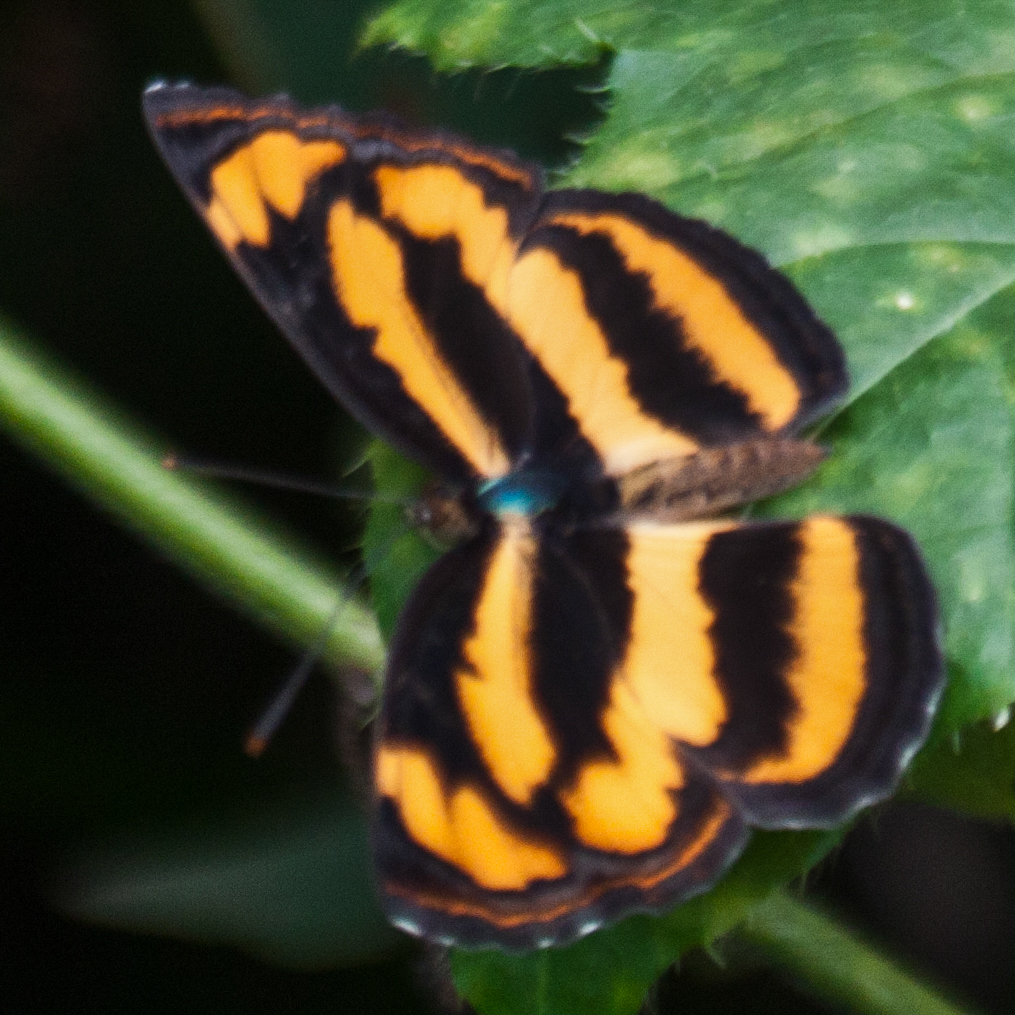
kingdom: Animalia
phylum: Arthropoda
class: Insecta
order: Lepidoptera
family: Nymphalidae
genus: Pantoporia
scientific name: Pantoporia hordonia
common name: Common lascar
